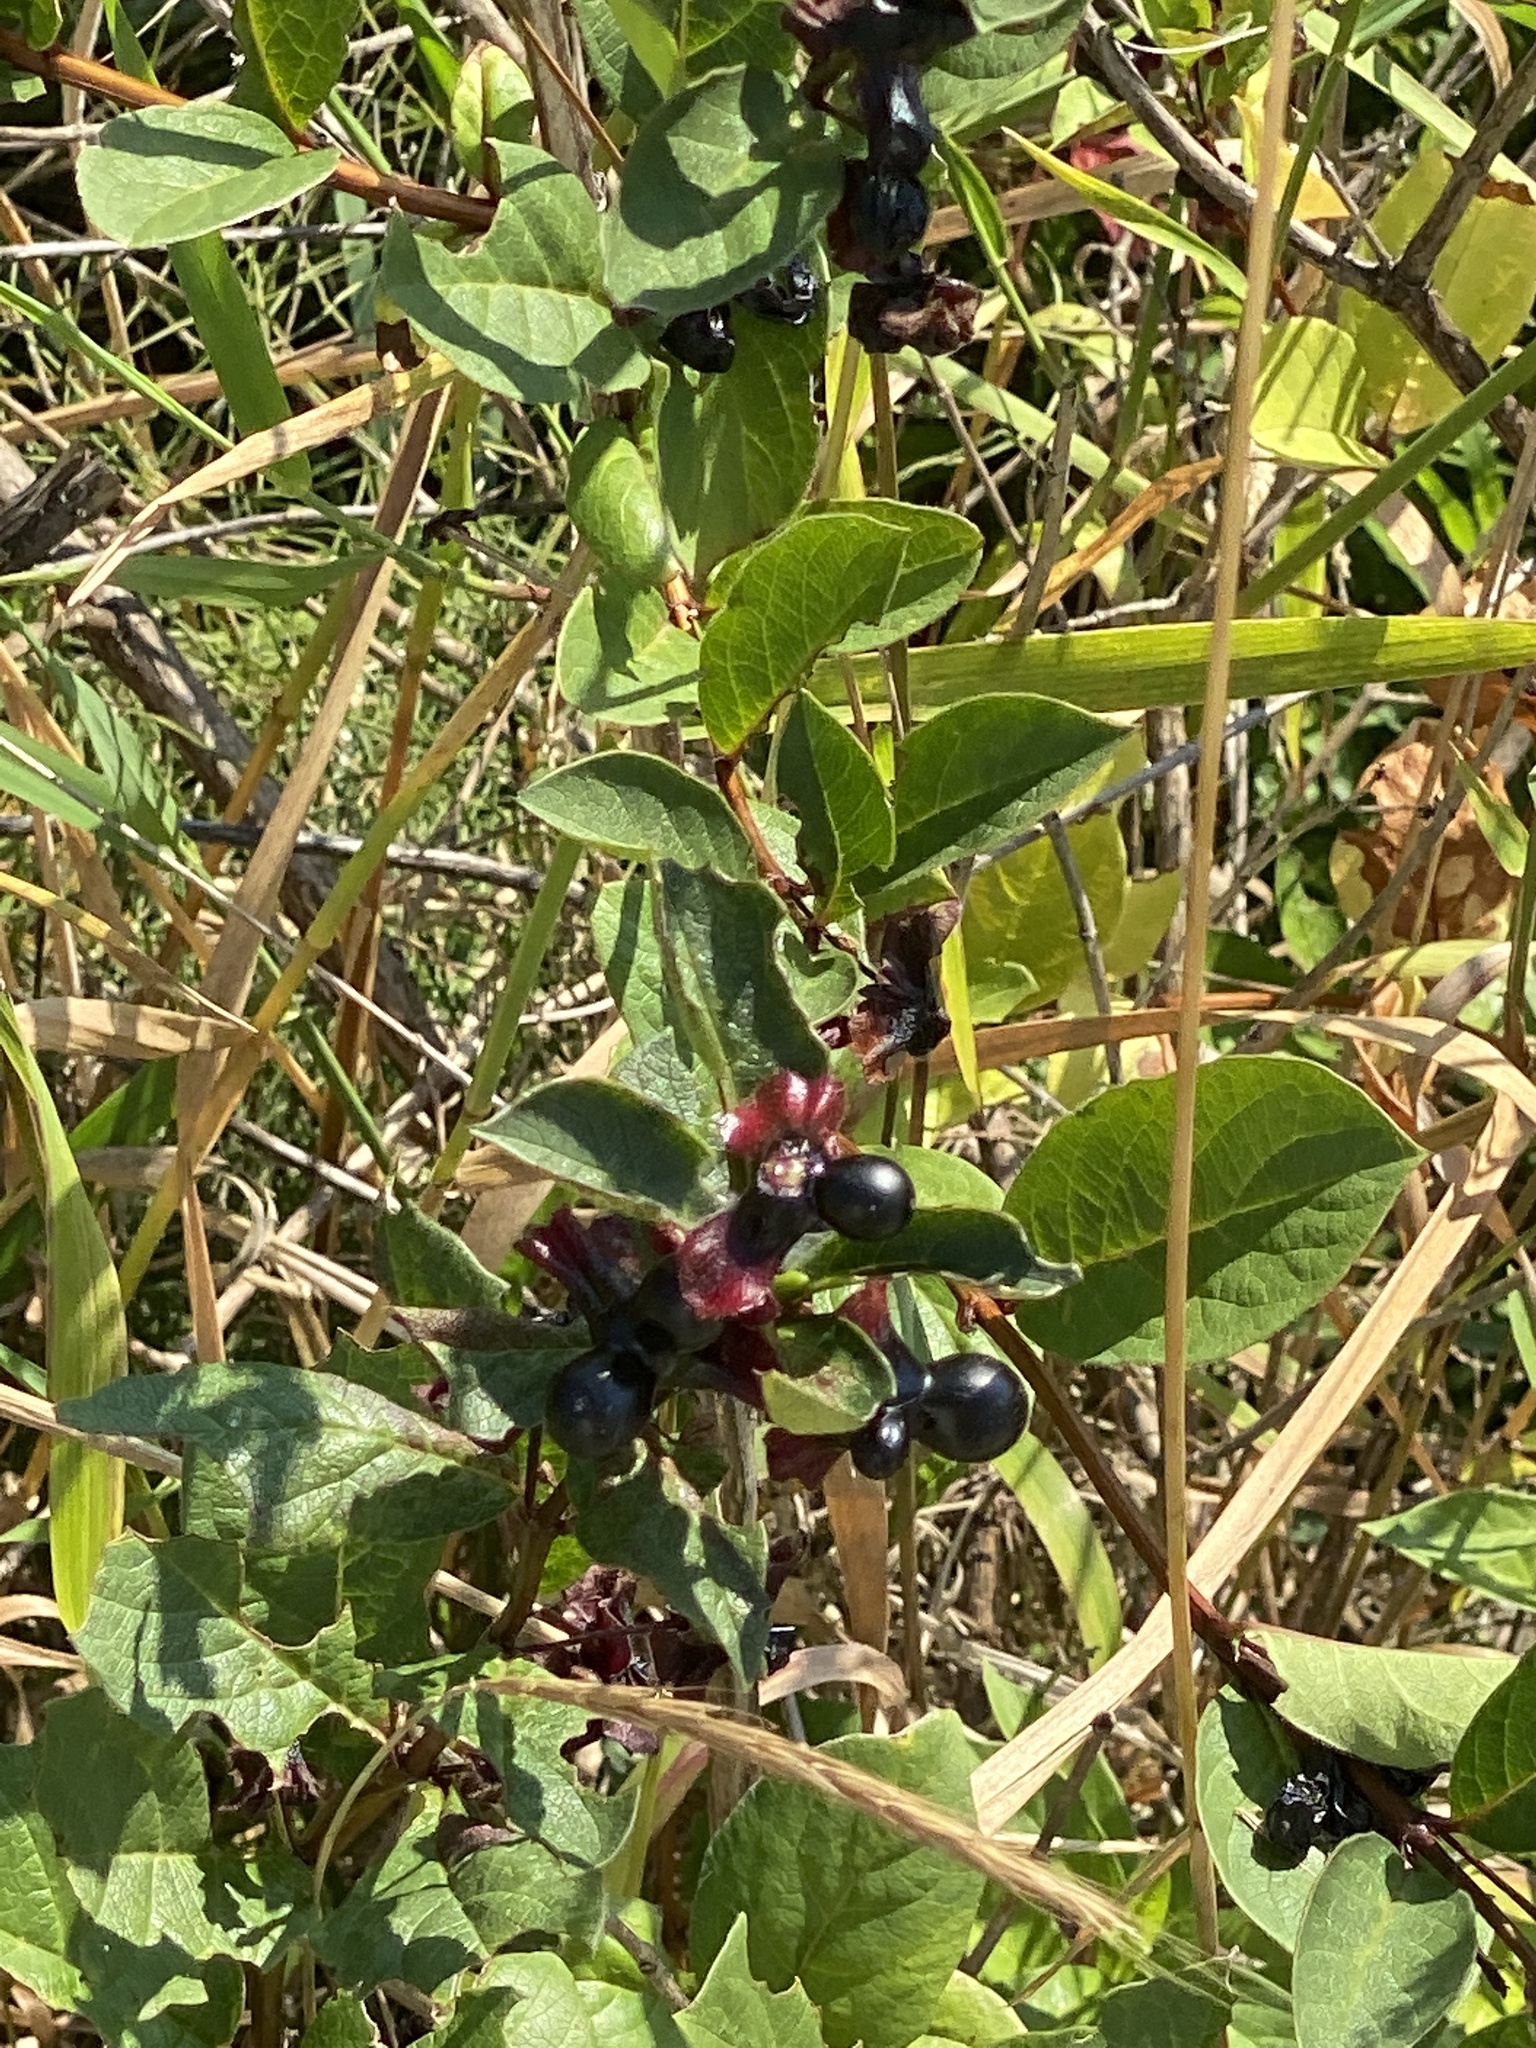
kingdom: Plantae
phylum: Tracheophyta
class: Magnoliopsida
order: Dipsacales
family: Caprifoliaceae
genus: Lonicera
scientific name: Lonicera involucrata
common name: Californian honeysuckle
